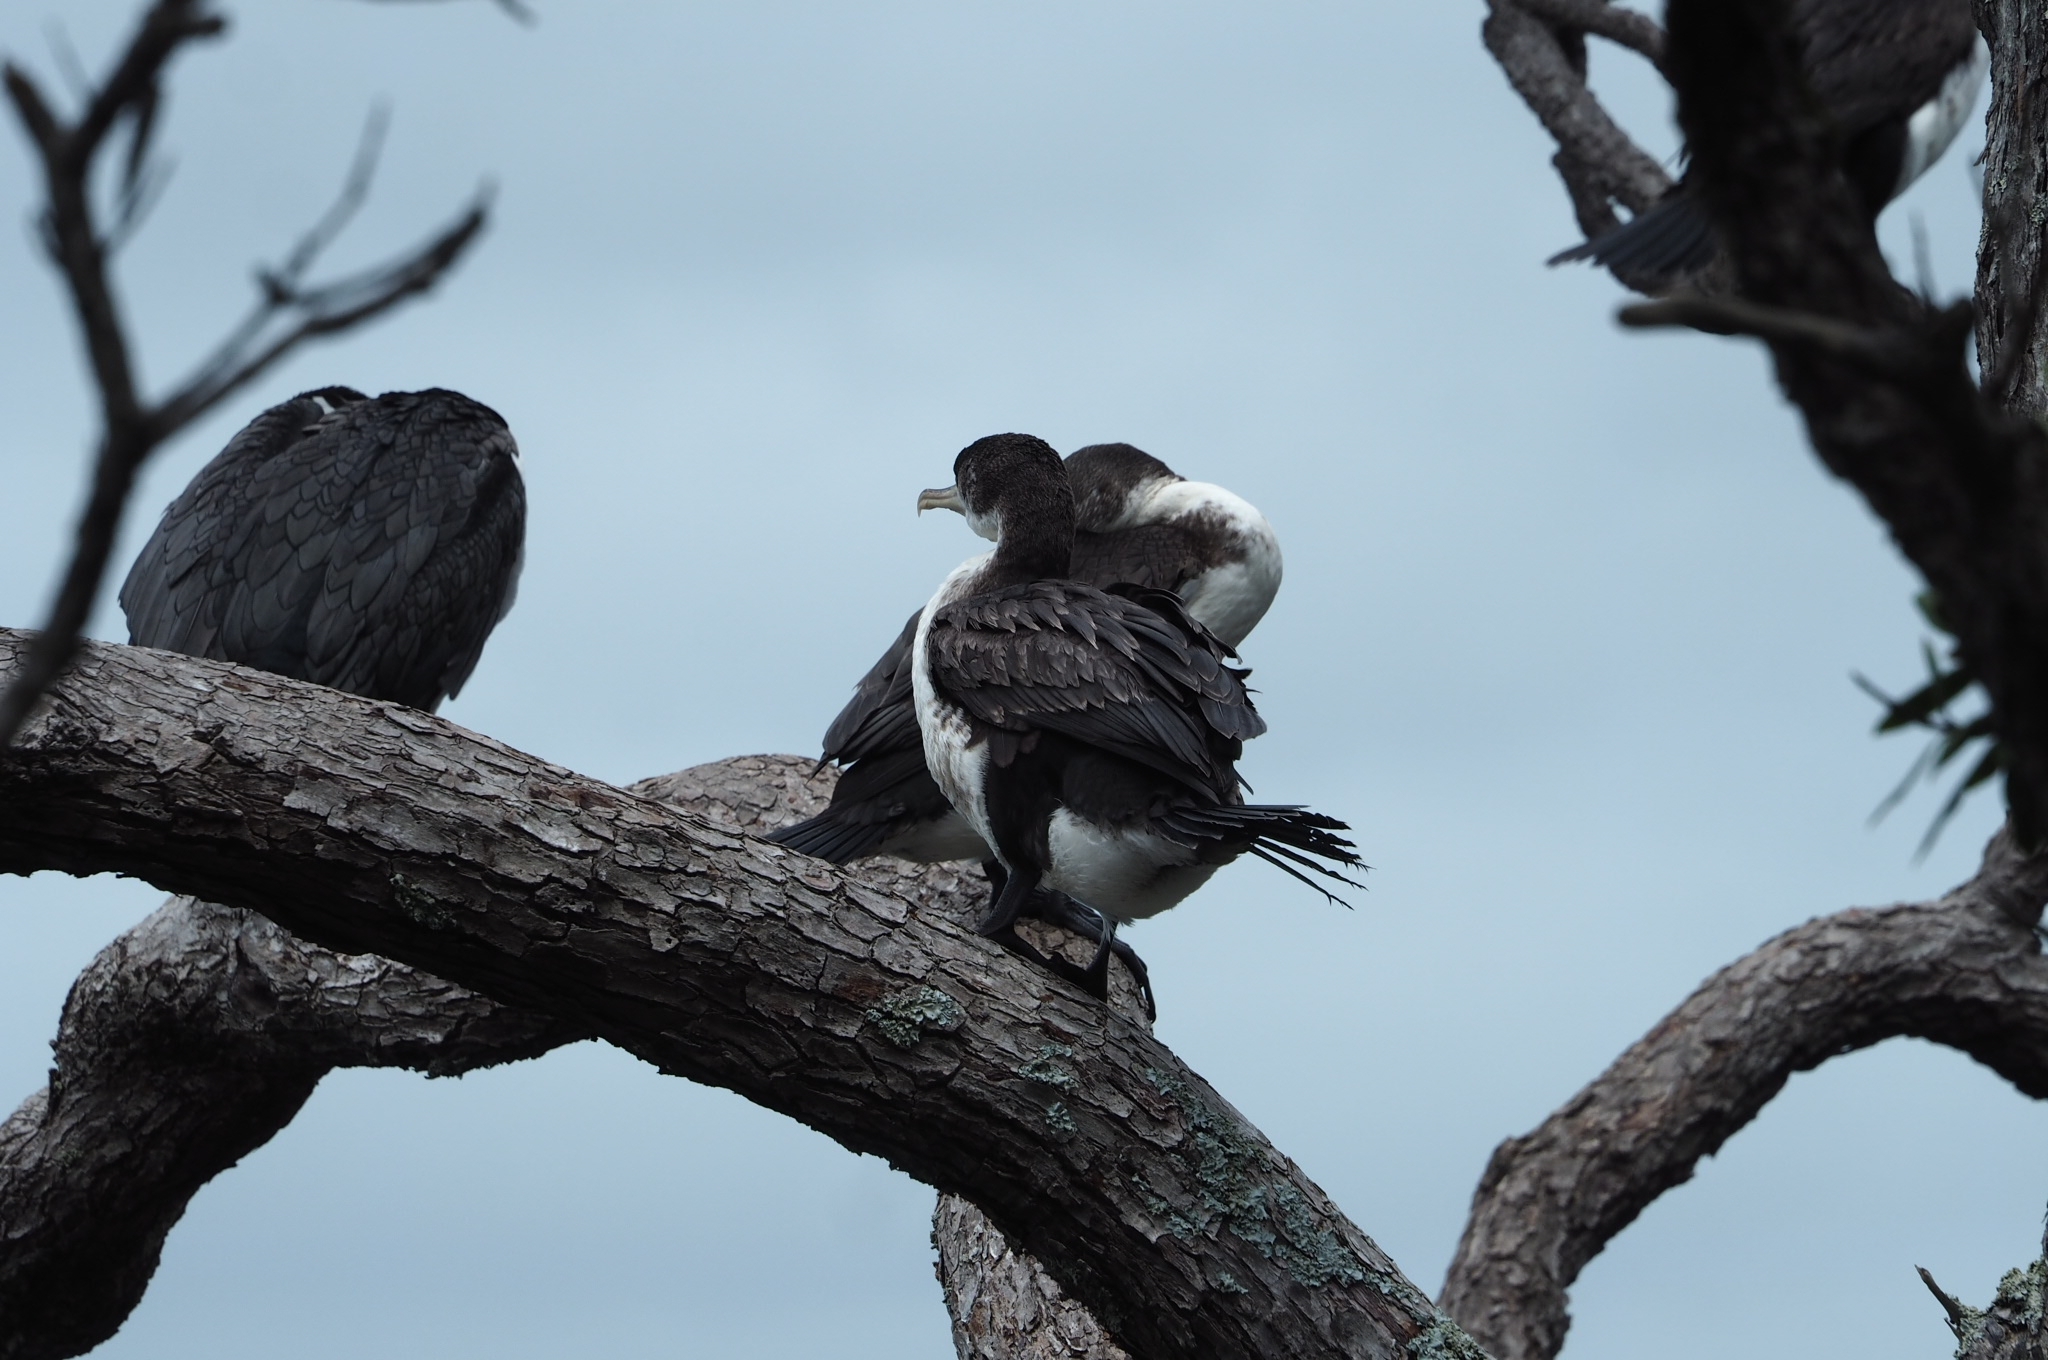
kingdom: Animalia
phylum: Chordata
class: Aves
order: Suliformes
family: Phalacrocoracidae
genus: Phalacrocorax
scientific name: Phalacrocorax varius
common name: Pied cormorant
